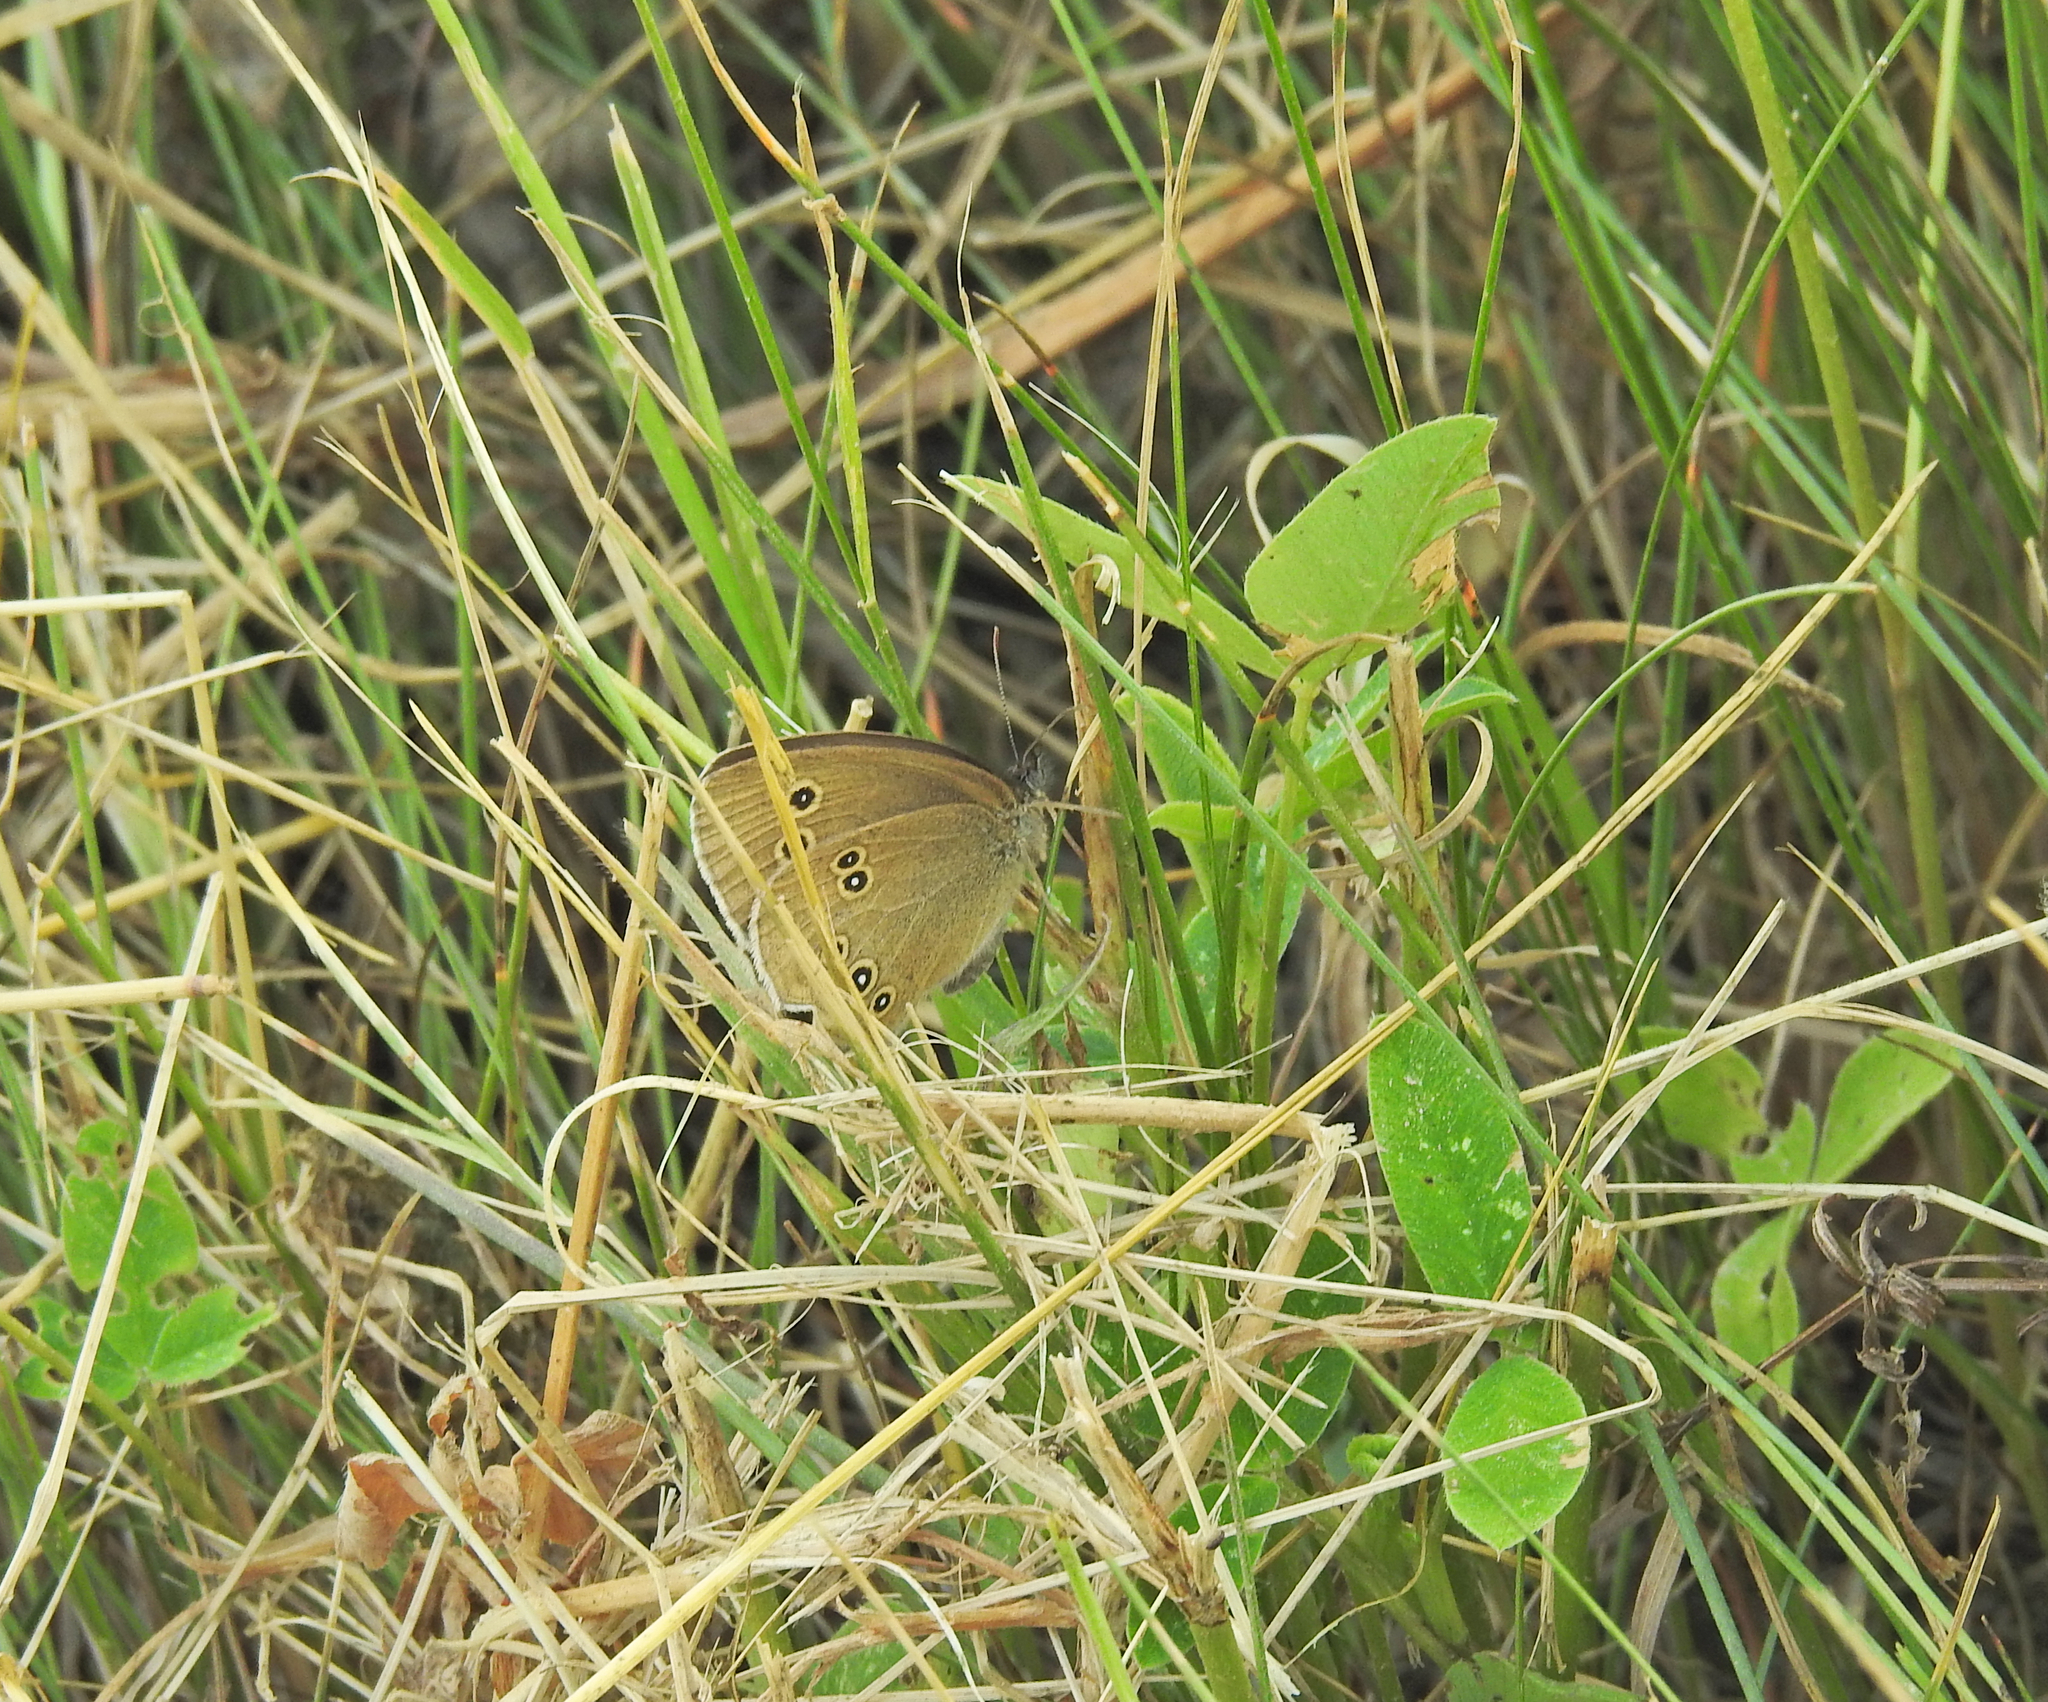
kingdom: Animalia
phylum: Arthropoda
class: Insecta
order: Lepidoptera
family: Nymphalidae
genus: Aphantopus
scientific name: Aphantopus hyperantus
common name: Ringlet
